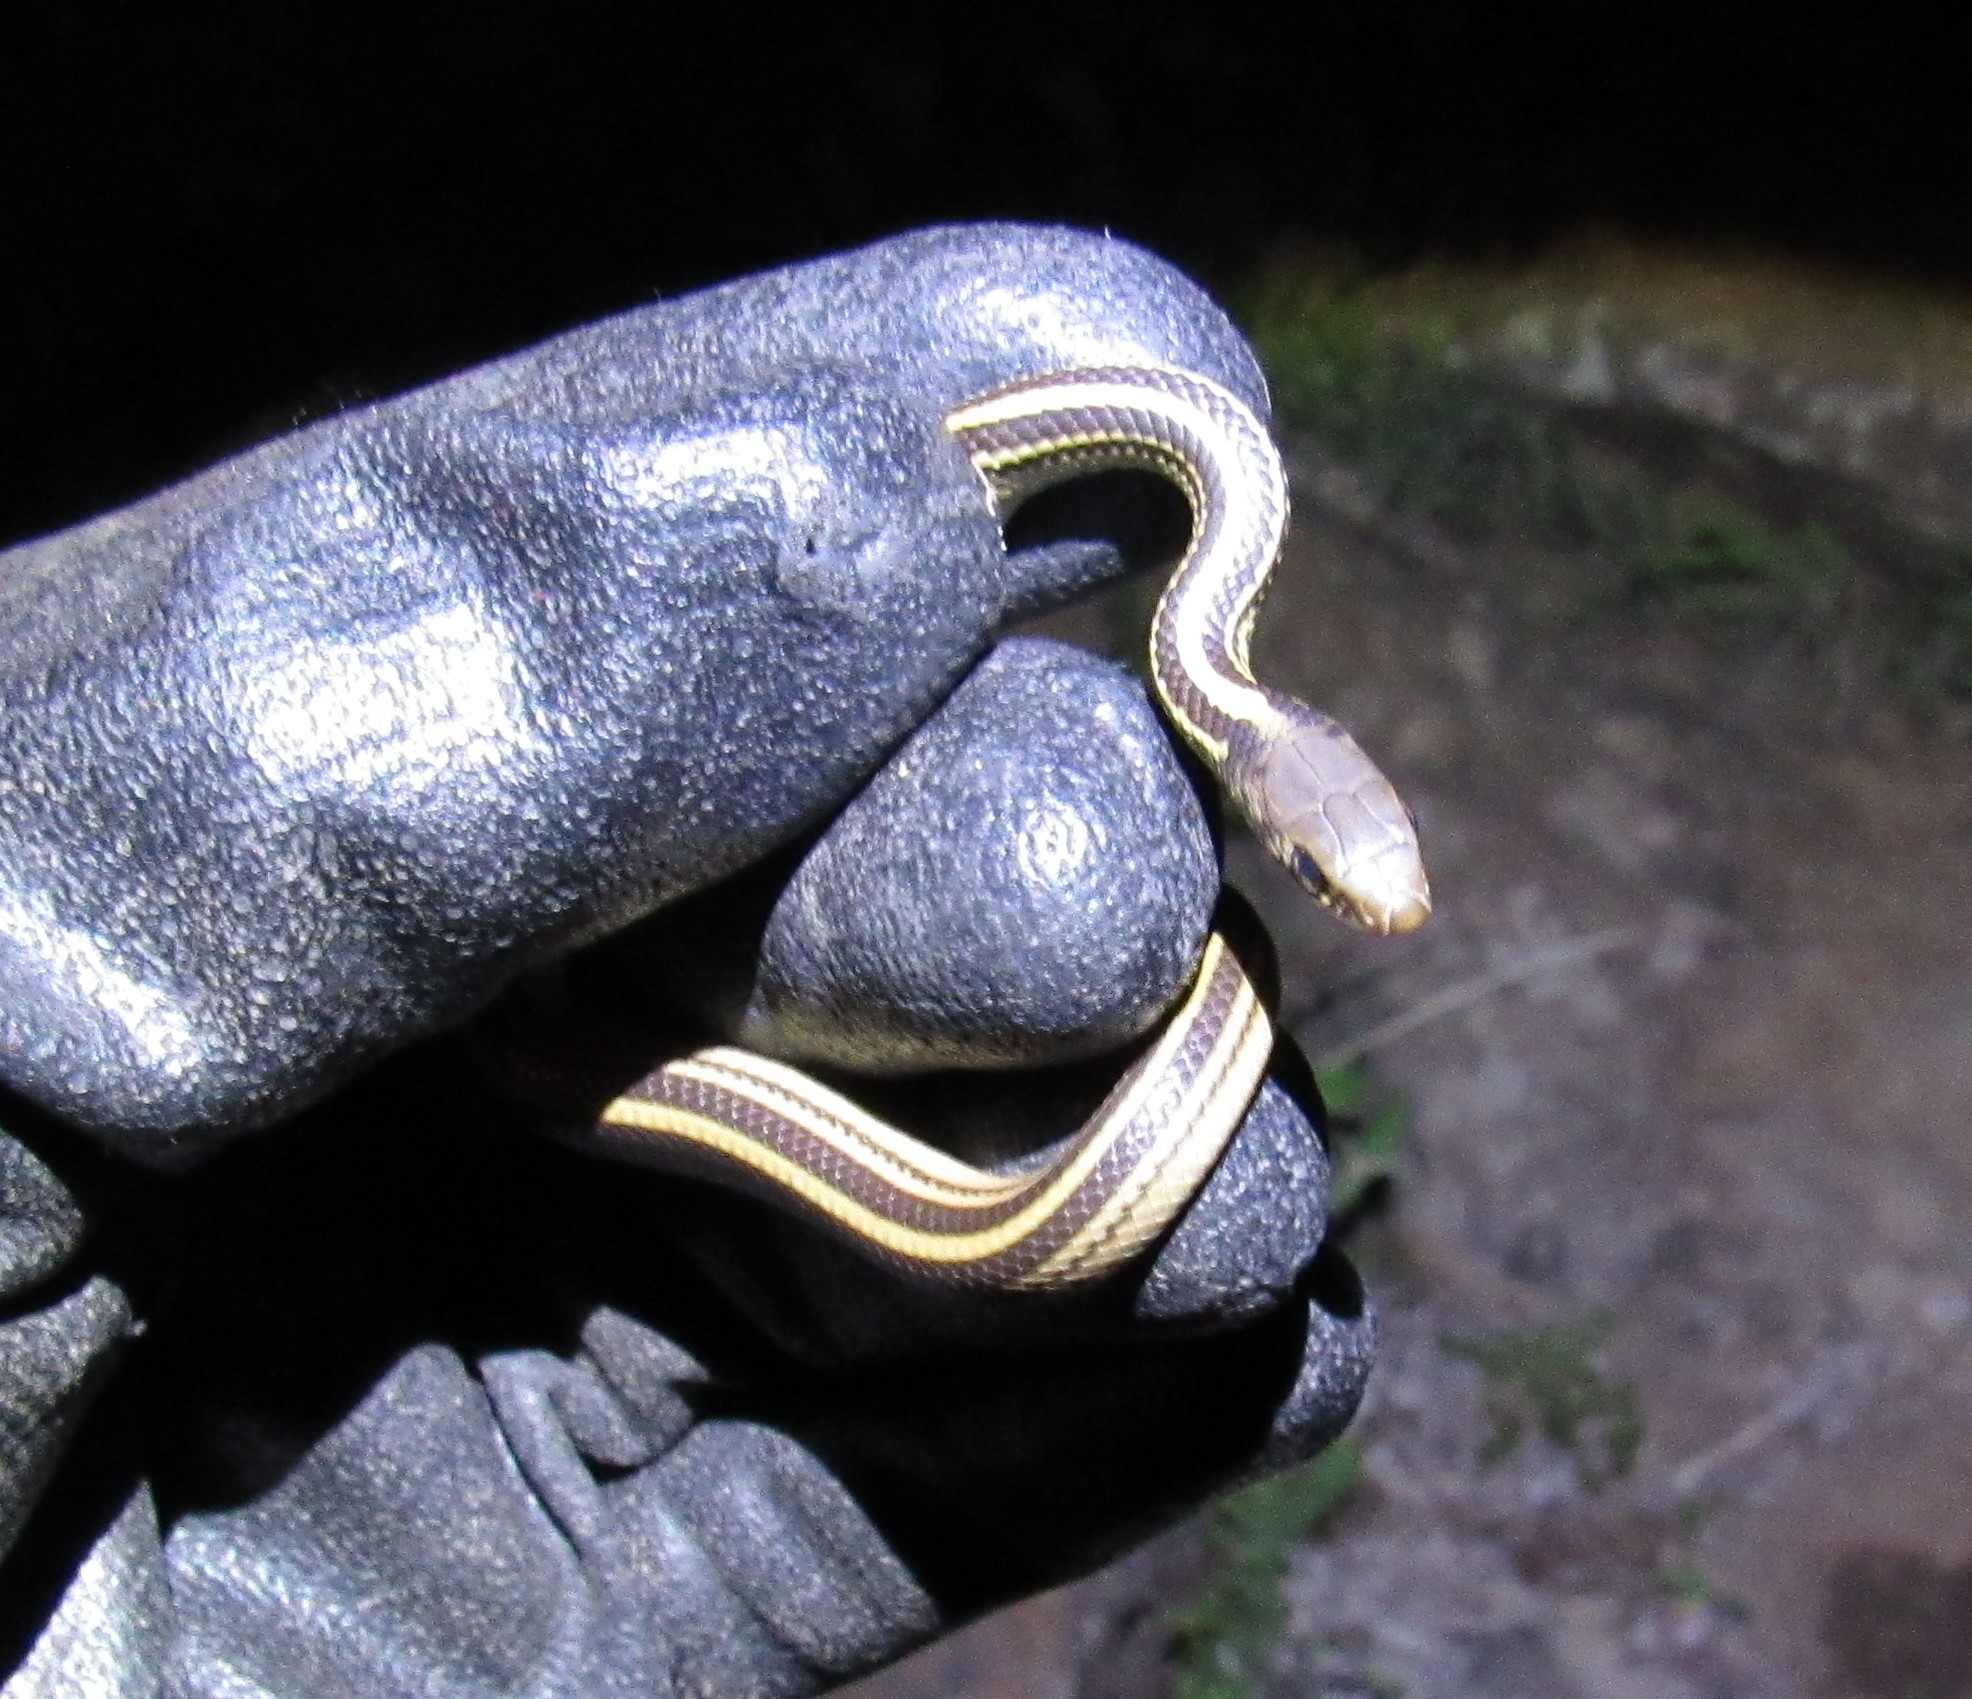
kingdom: Animalia
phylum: Chordata
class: Squamata
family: Colubridae
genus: Salvadora
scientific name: Salvadora bairdi
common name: Baird's patchnose snake
